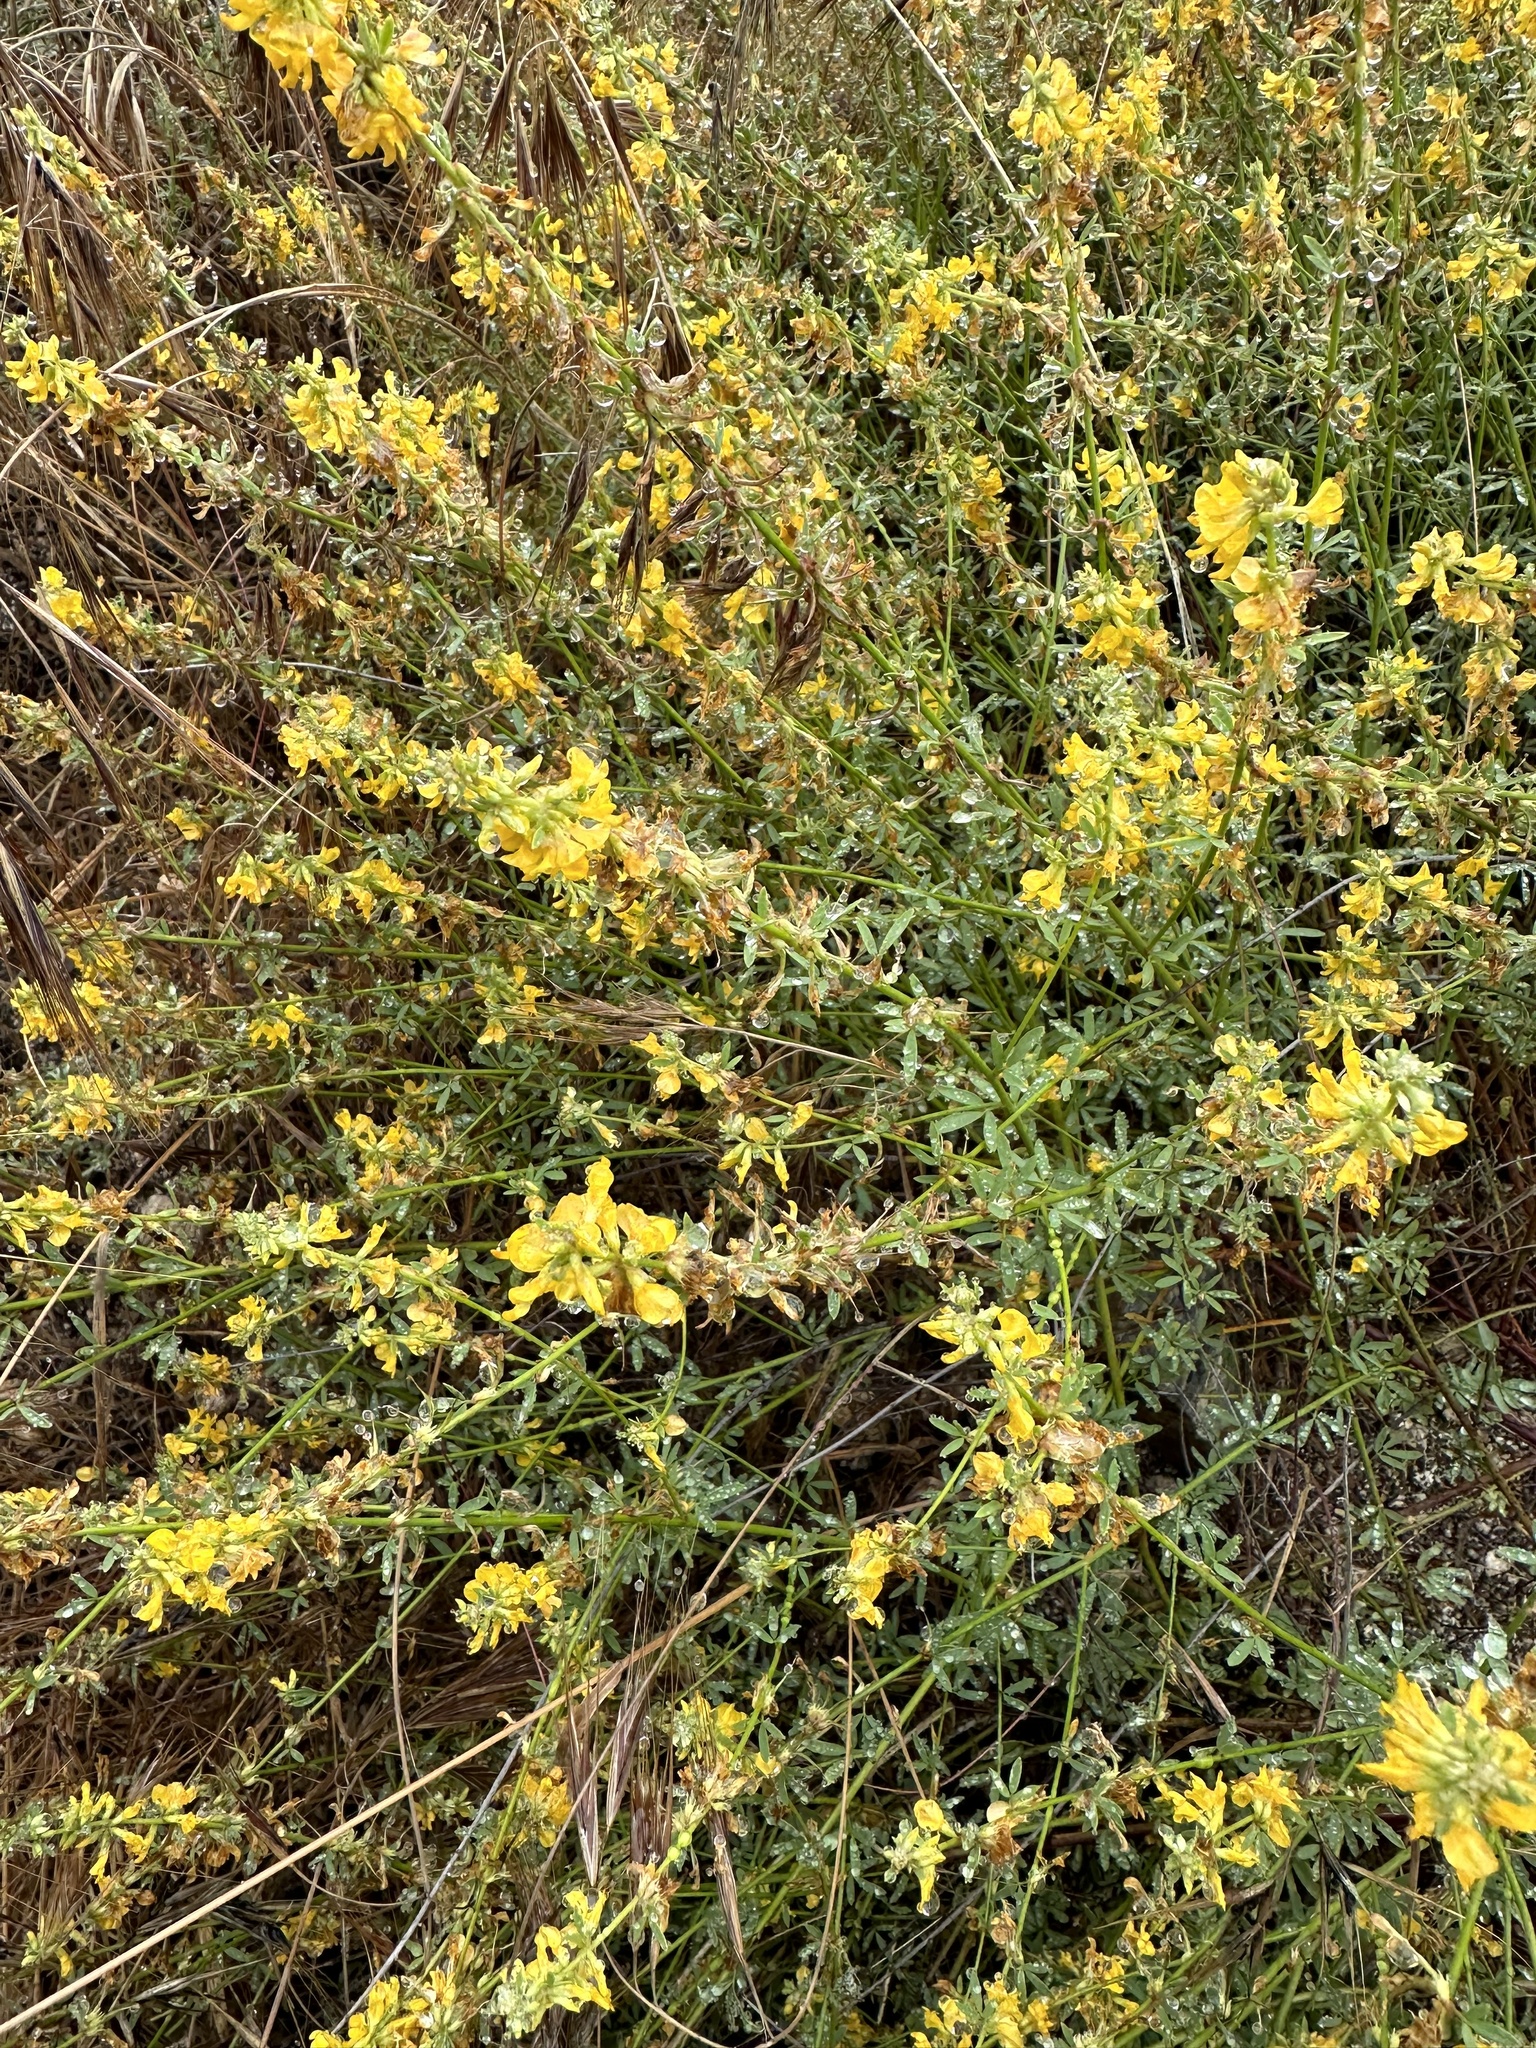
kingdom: Plantae
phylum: Tracheophyta
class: Magnoliopsida
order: Fabales
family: Fabaceae
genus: Acmispon
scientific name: Acmispon glaber
